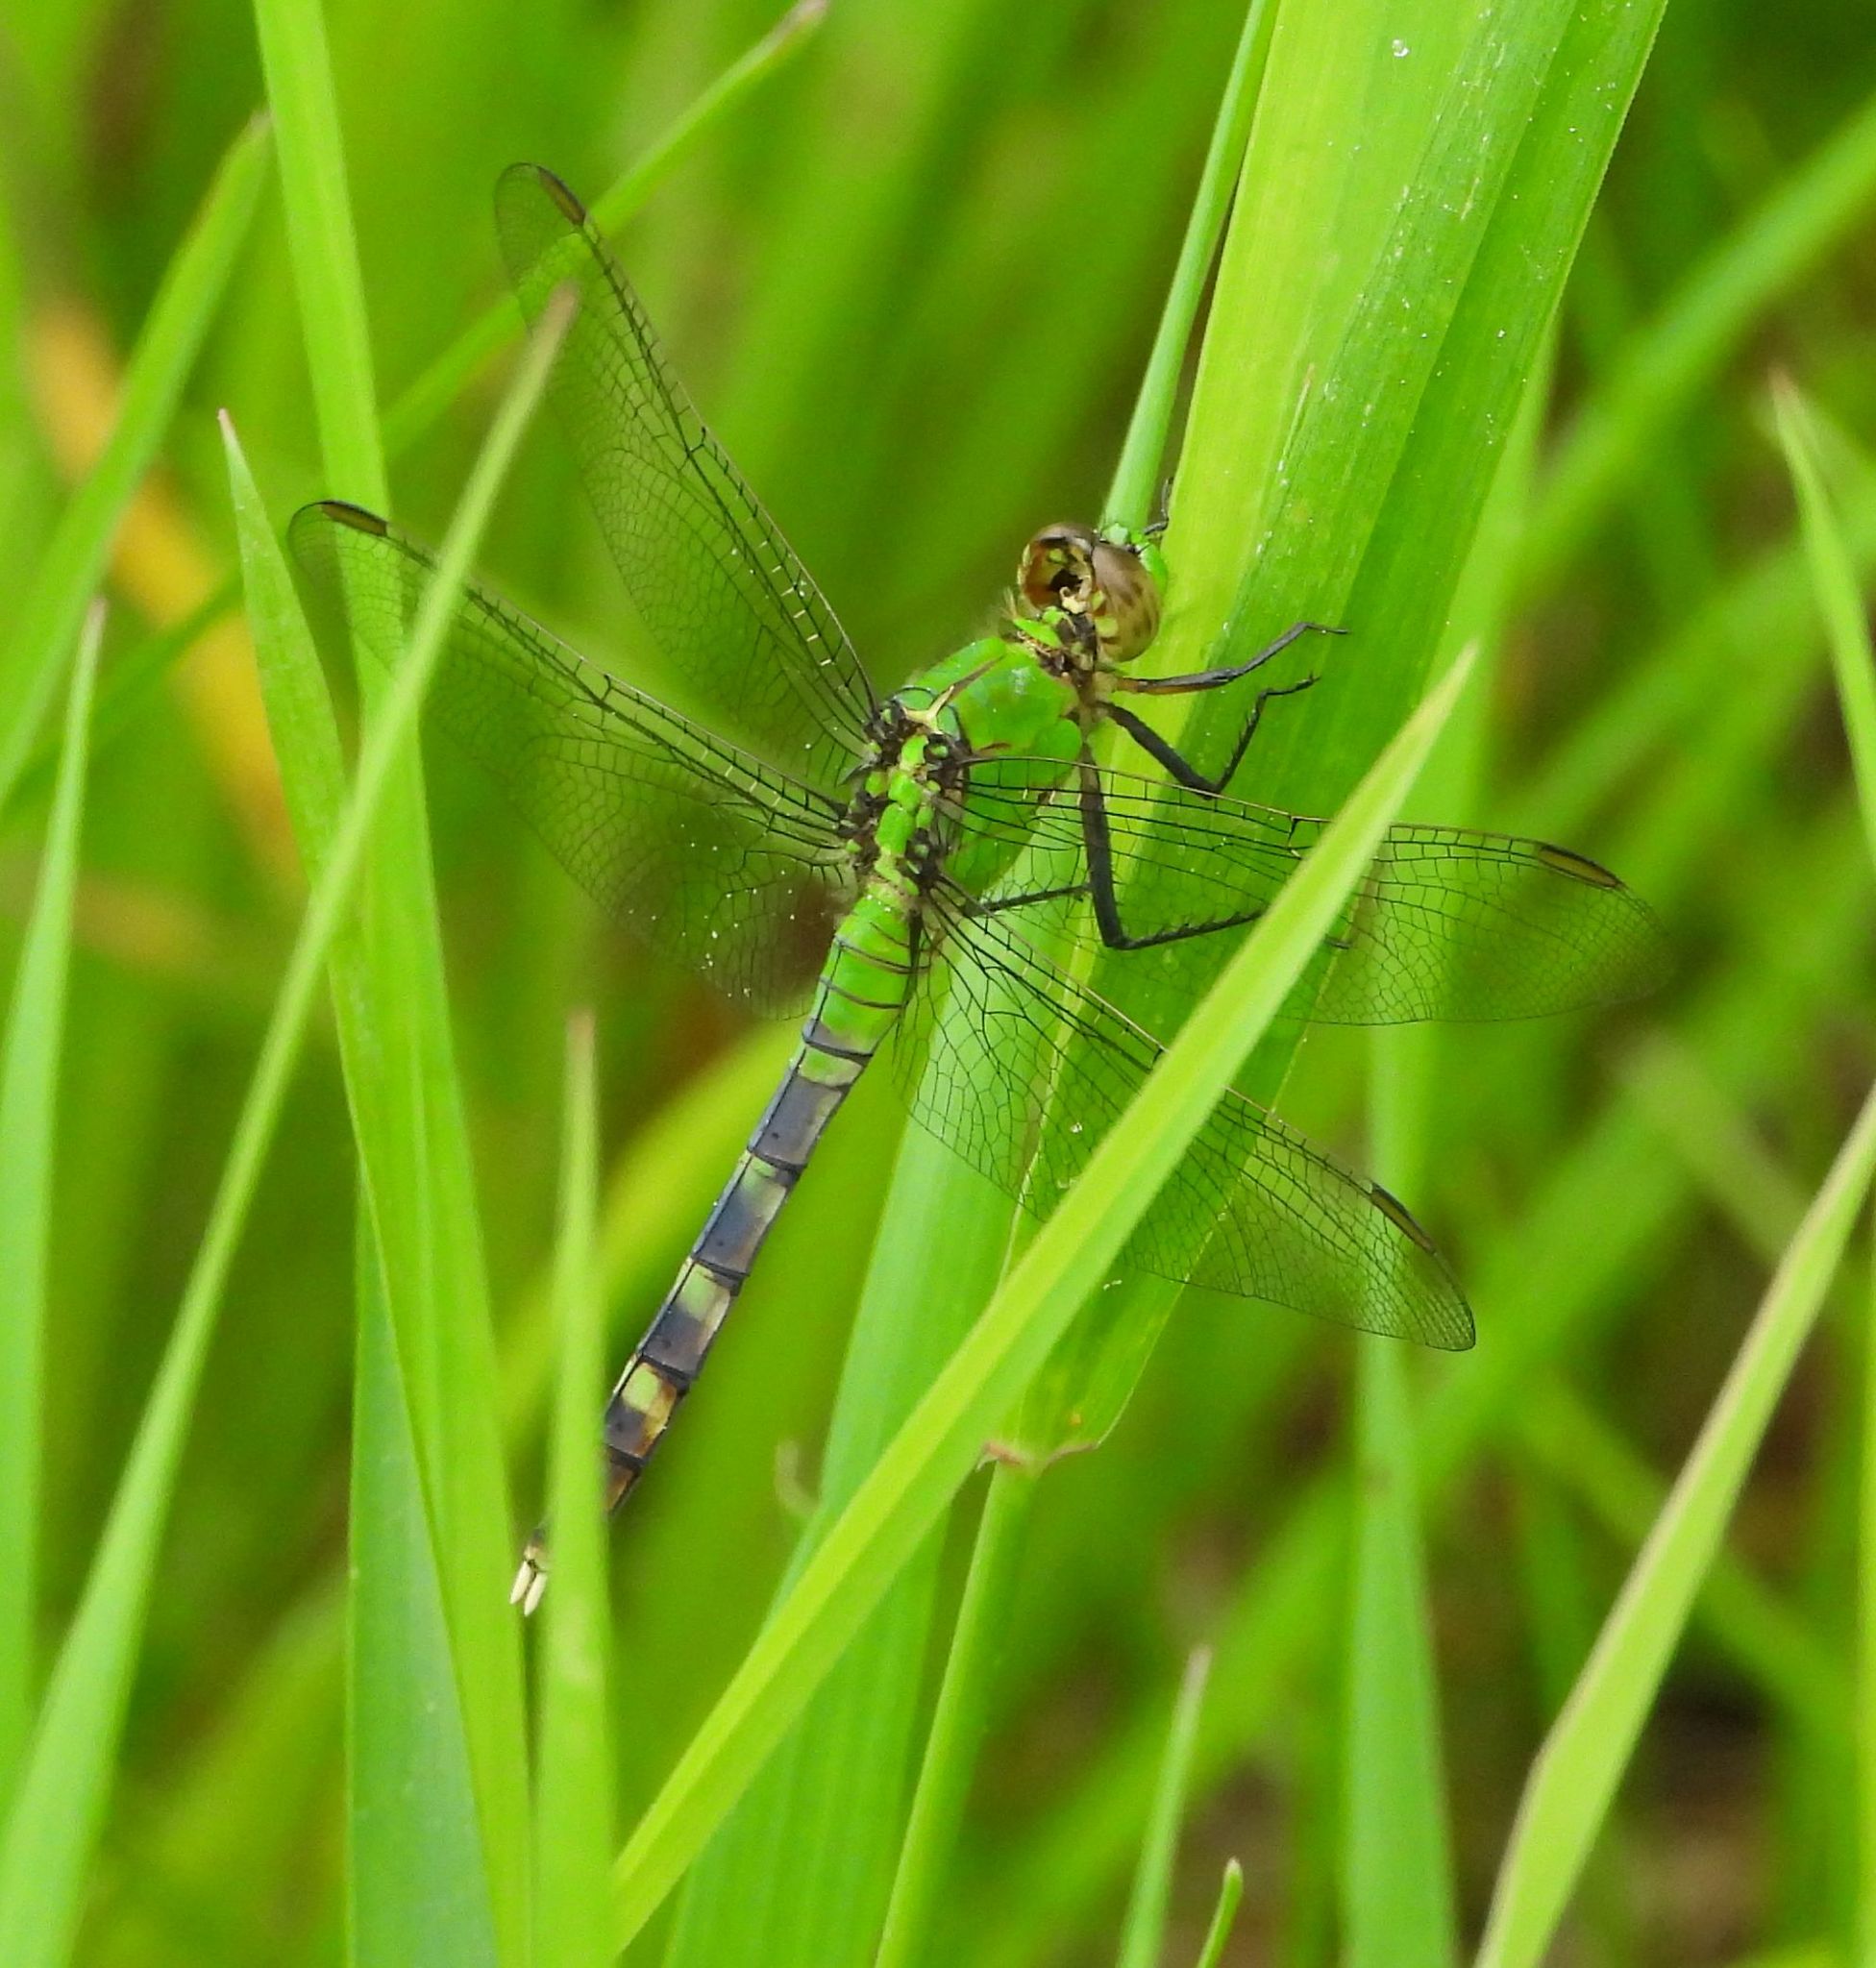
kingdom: Animalia
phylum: Arthropoda
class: Insecta
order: Odonata
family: Libellulidae
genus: Erythemis
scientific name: Erythemis simplicicollis
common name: Eastern pondhawk
